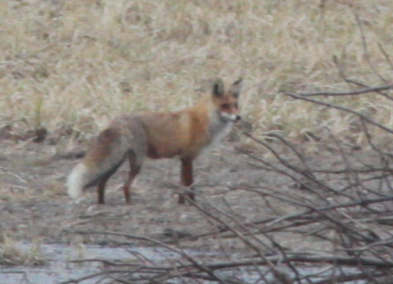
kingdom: Animalia
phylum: Chordata
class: Mammalia
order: Carnivora
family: Canidae
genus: Vulpes
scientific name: Vulpes vulpes
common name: Red fox
